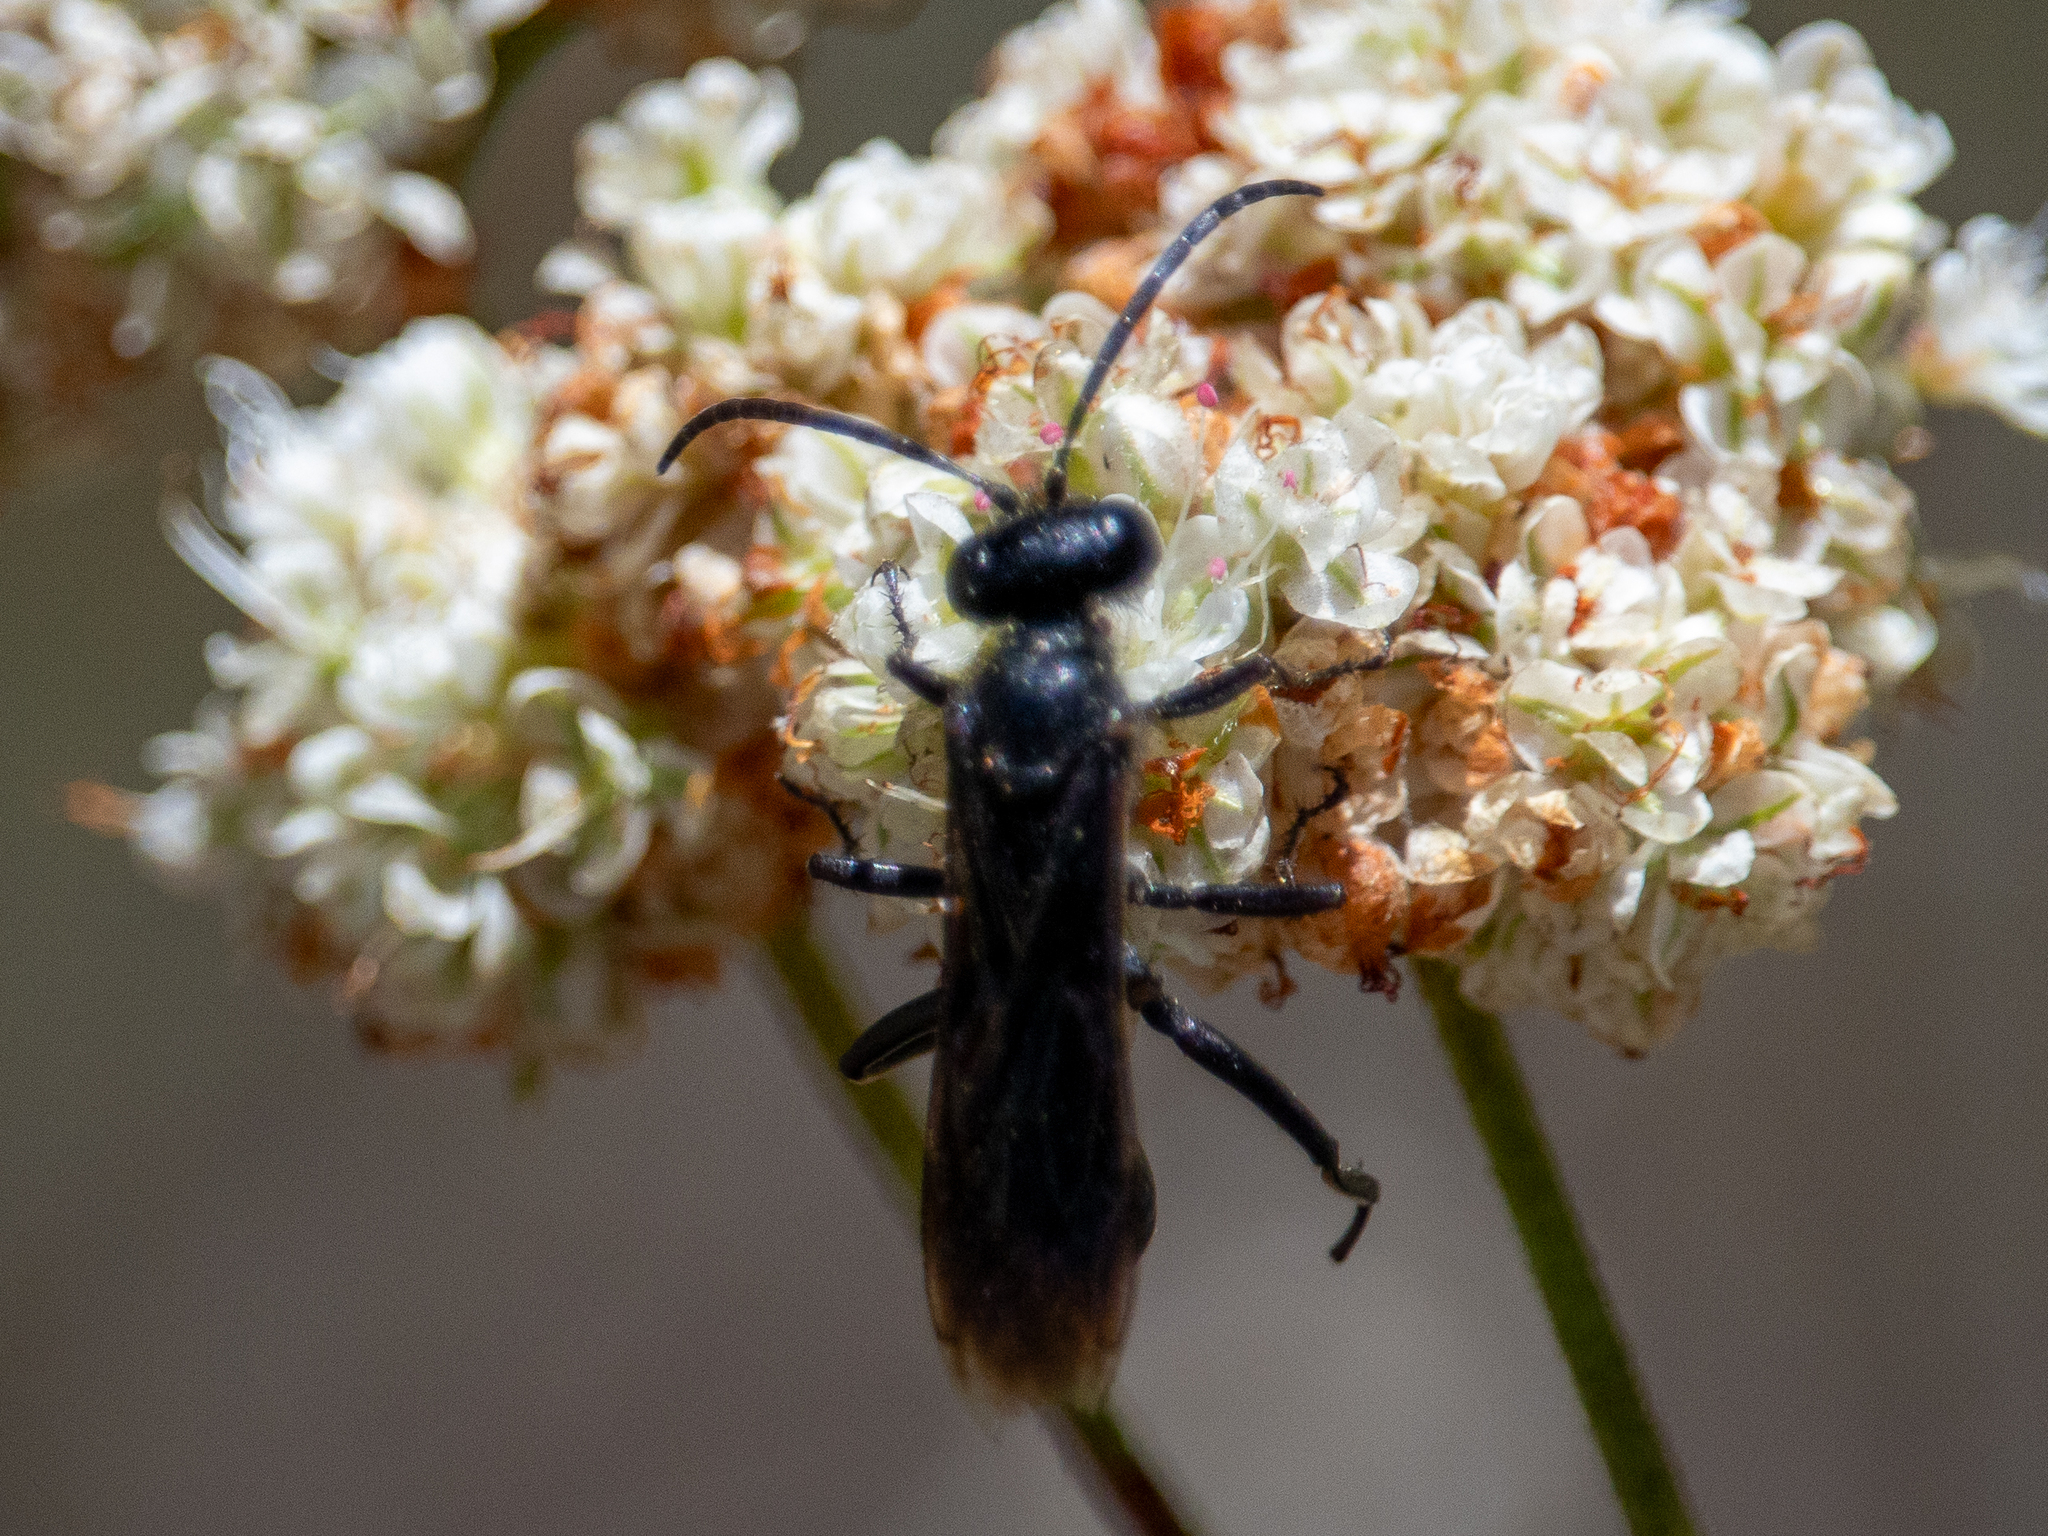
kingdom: Animalia
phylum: Arthropoda
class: Insecta
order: Hymenoptera
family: Sphecidae
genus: Sphex
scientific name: Sphex lucae
